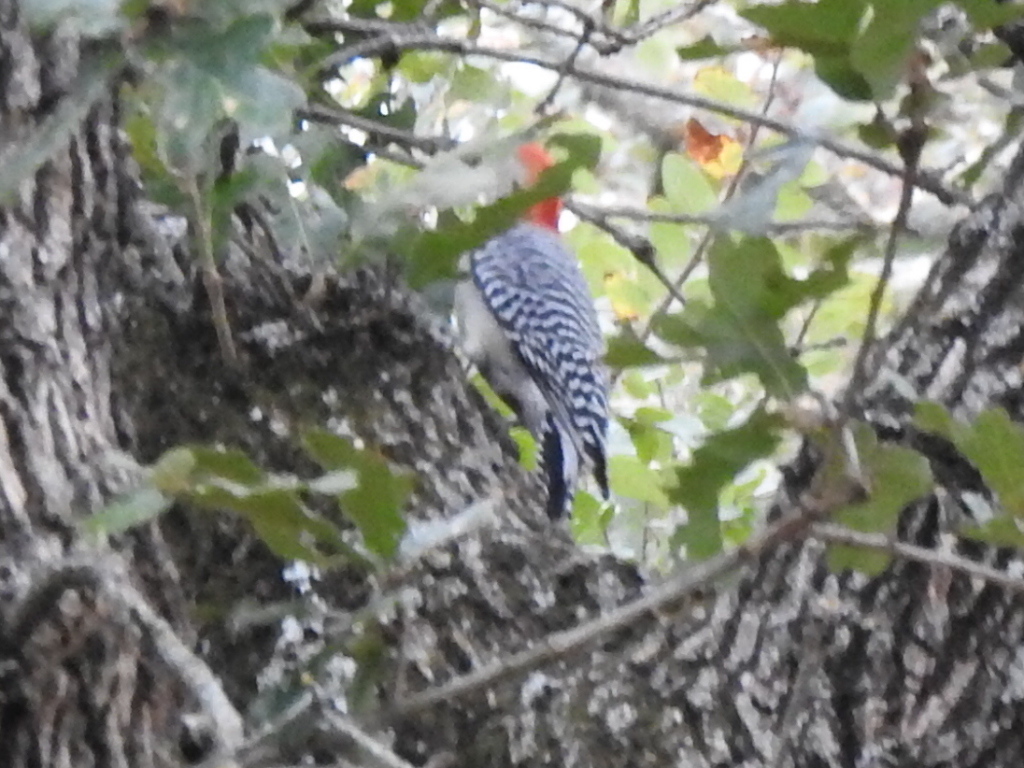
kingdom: Animalia
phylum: Chordata
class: Aves
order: Piciformes
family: Picidae
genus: Melanerpes
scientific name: Melanerpes carolinus
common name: Red-bellied woodpecker
